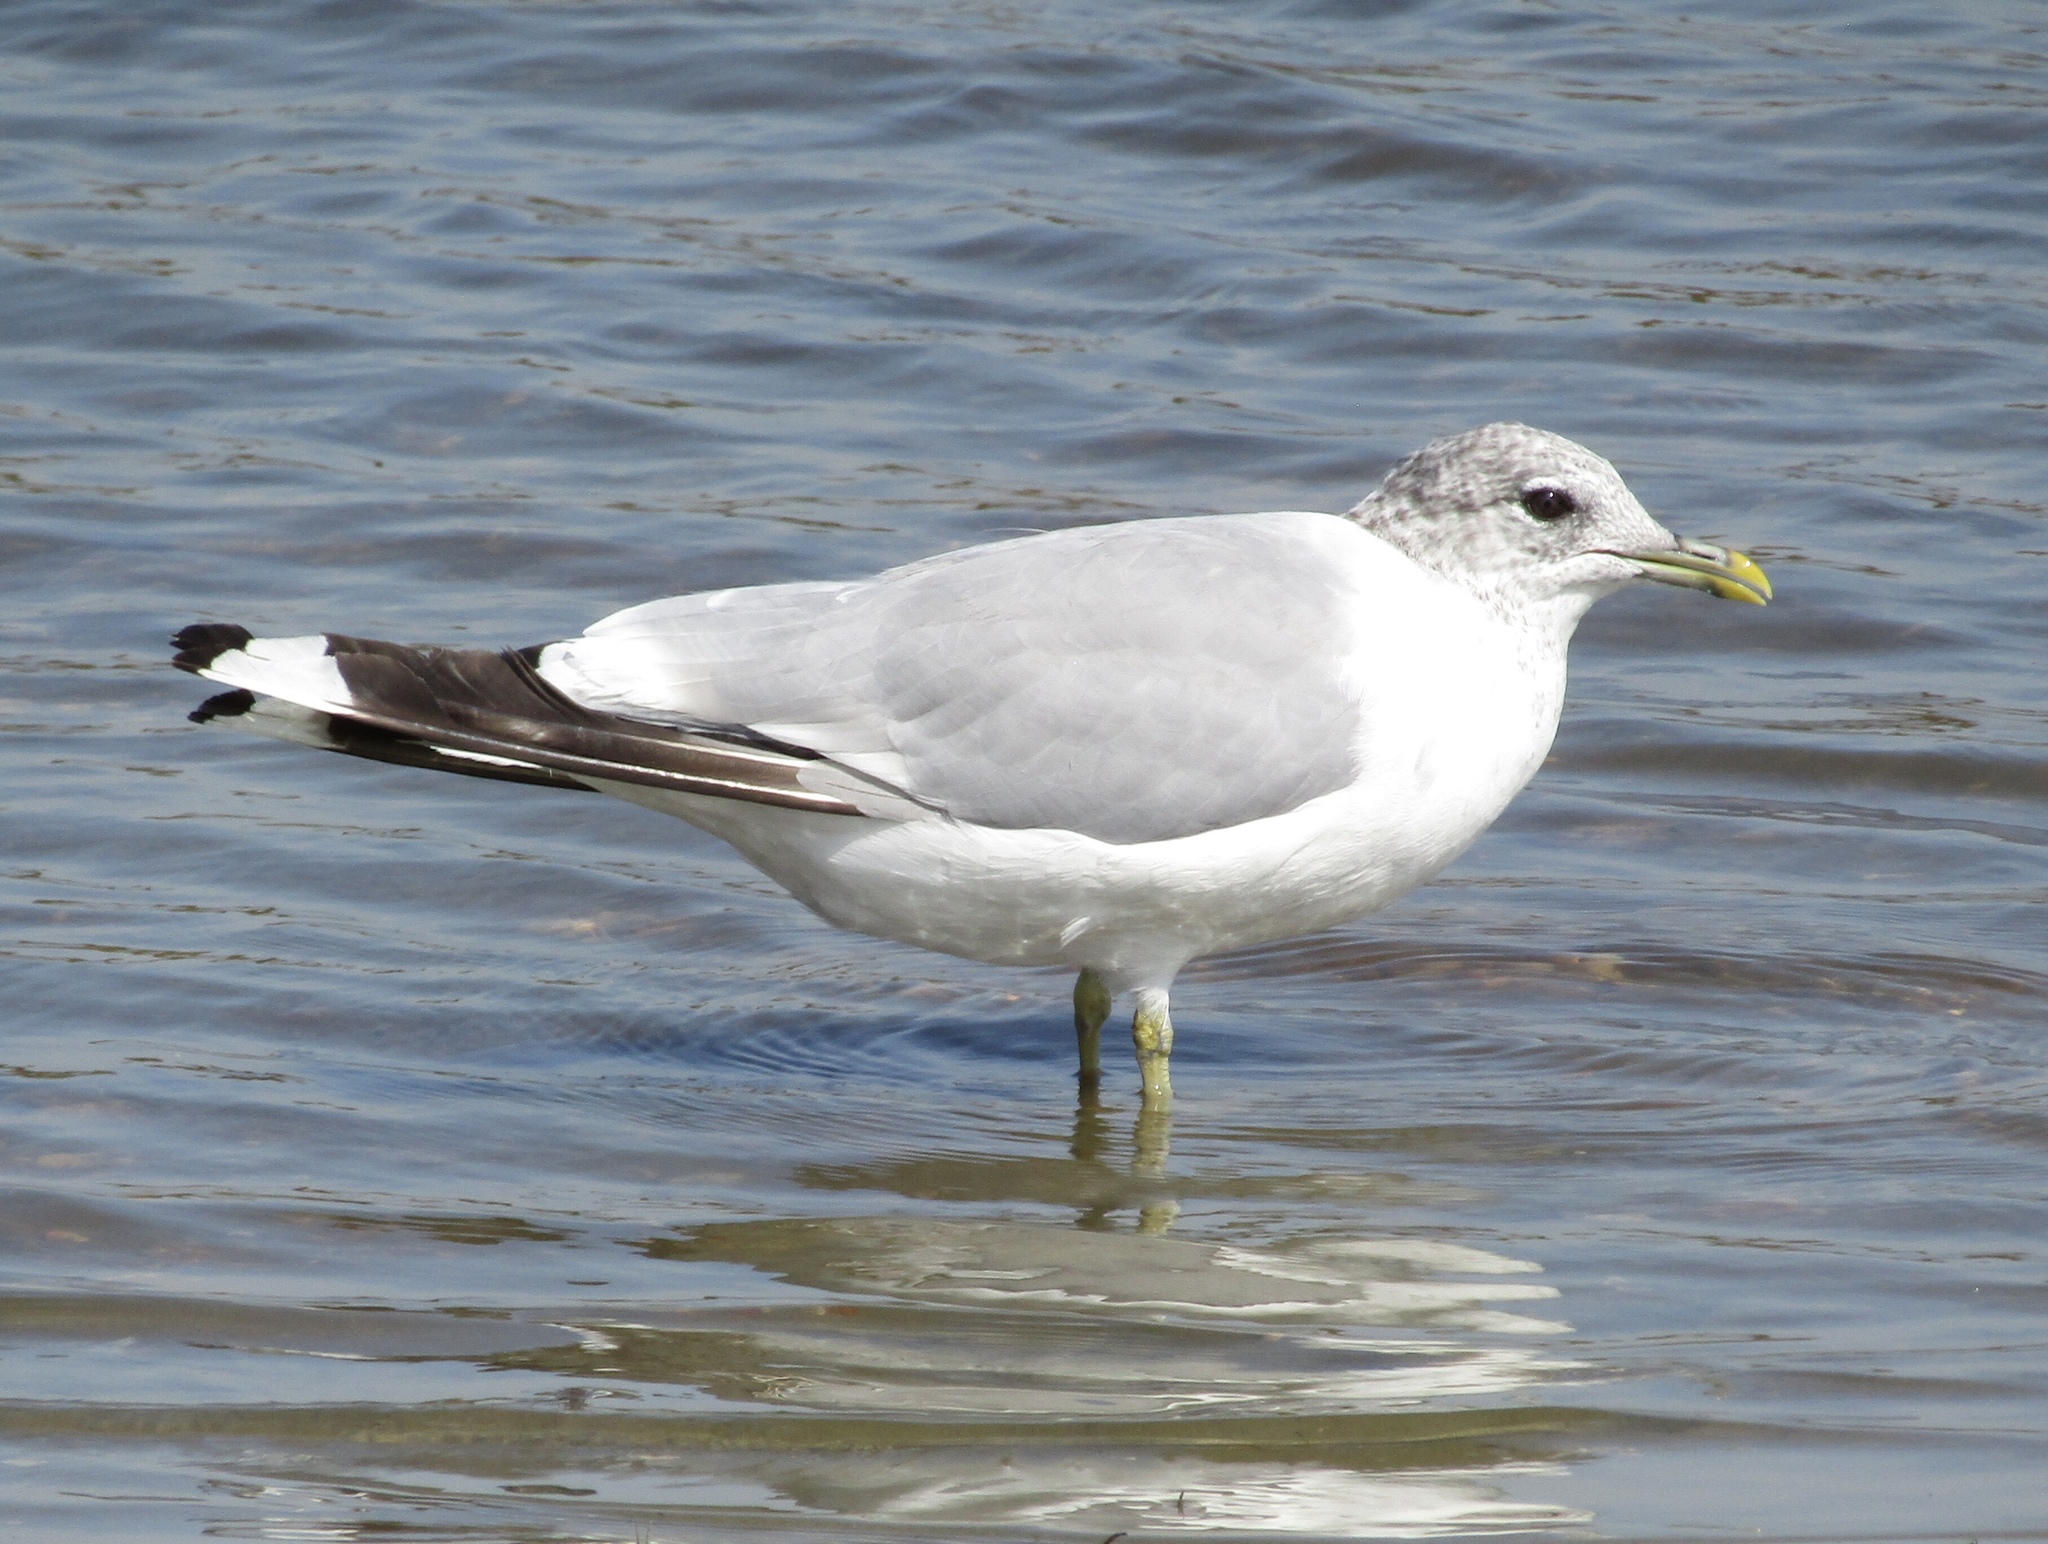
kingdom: Animalia
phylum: Chordata
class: Aves
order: Charadriiformes
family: Laridae
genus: Larus
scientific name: Larus canus
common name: Mew gull
